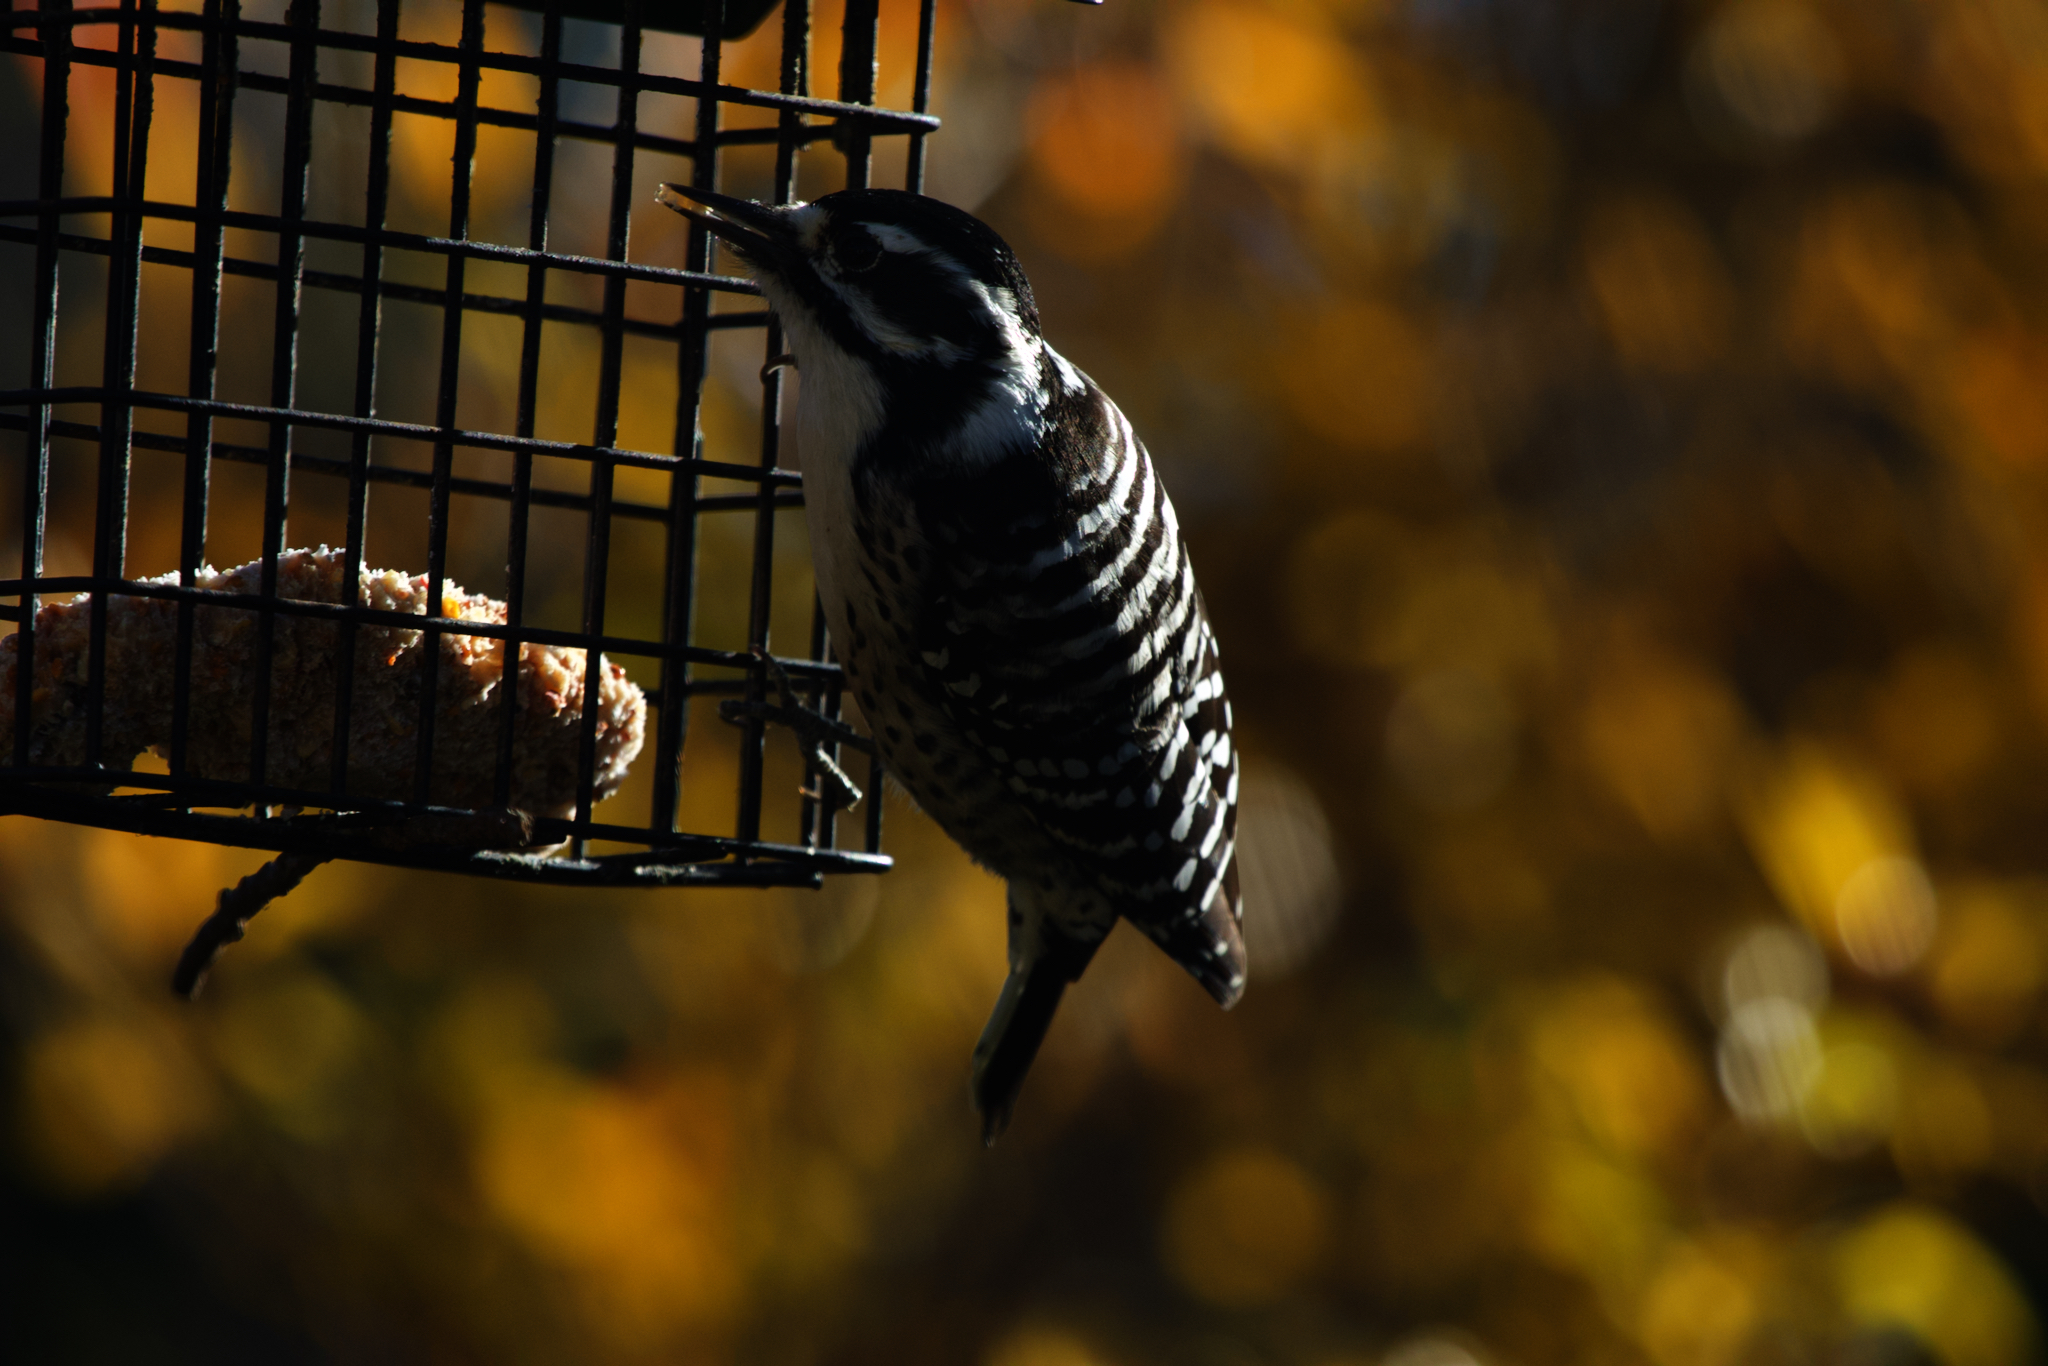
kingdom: Animalia
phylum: Chordata
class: Aves
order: Piciformes
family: Picidae
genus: Dryobates
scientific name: Dryobates nuttallii
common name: Nuttall's woodpecker
